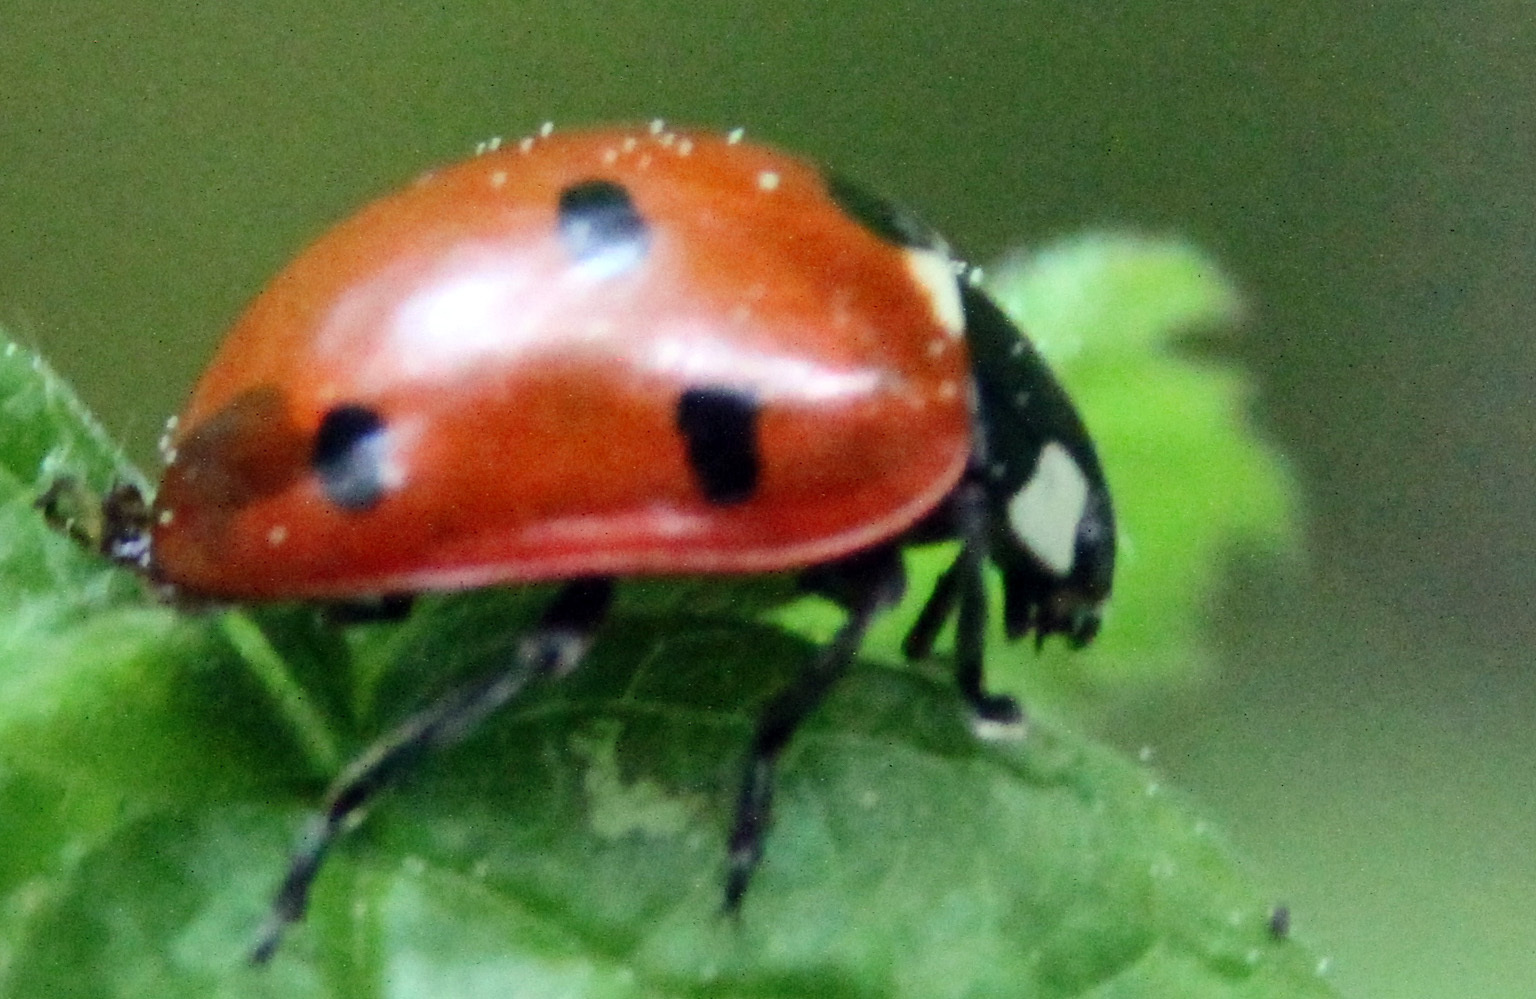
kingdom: Animalia
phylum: Arthropoda
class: Insecta
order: Coleoptera
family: Coccinellidae
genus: Coccinella
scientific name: Coccinella septempunctata
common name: Sevenspotted lady beetle
